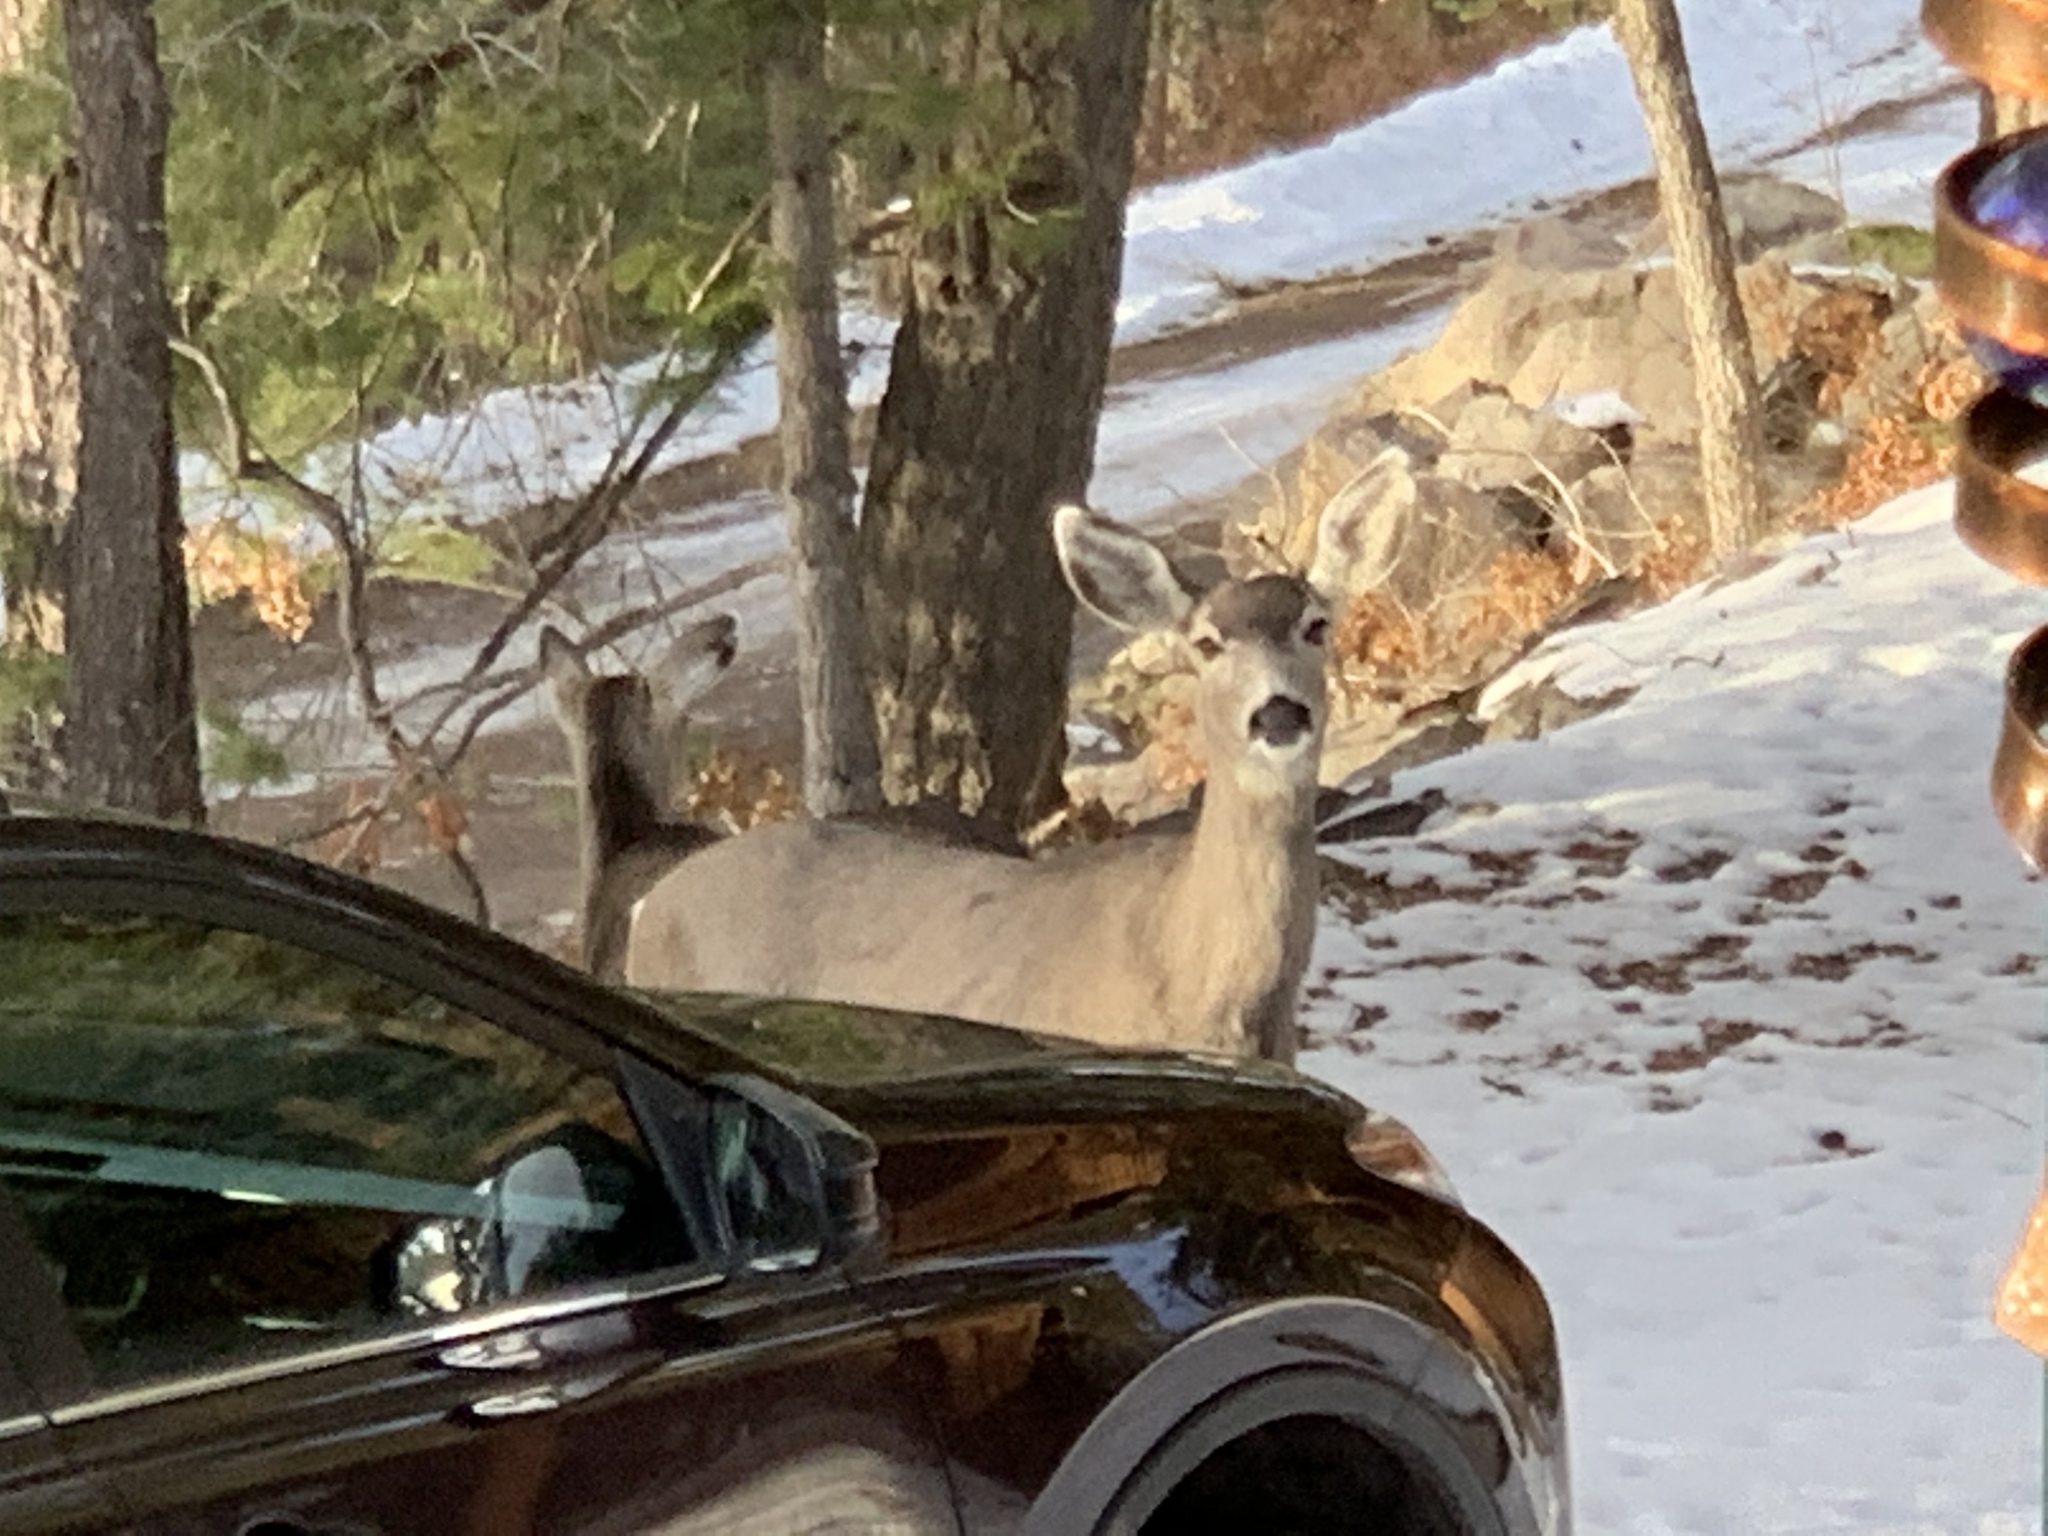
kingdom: Animalia
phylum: Chordata
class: Mammalia
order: Artiodactyla
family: Cervidae
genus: Odocoileus
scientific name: Odocoileus hemionus
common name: Mule deer
